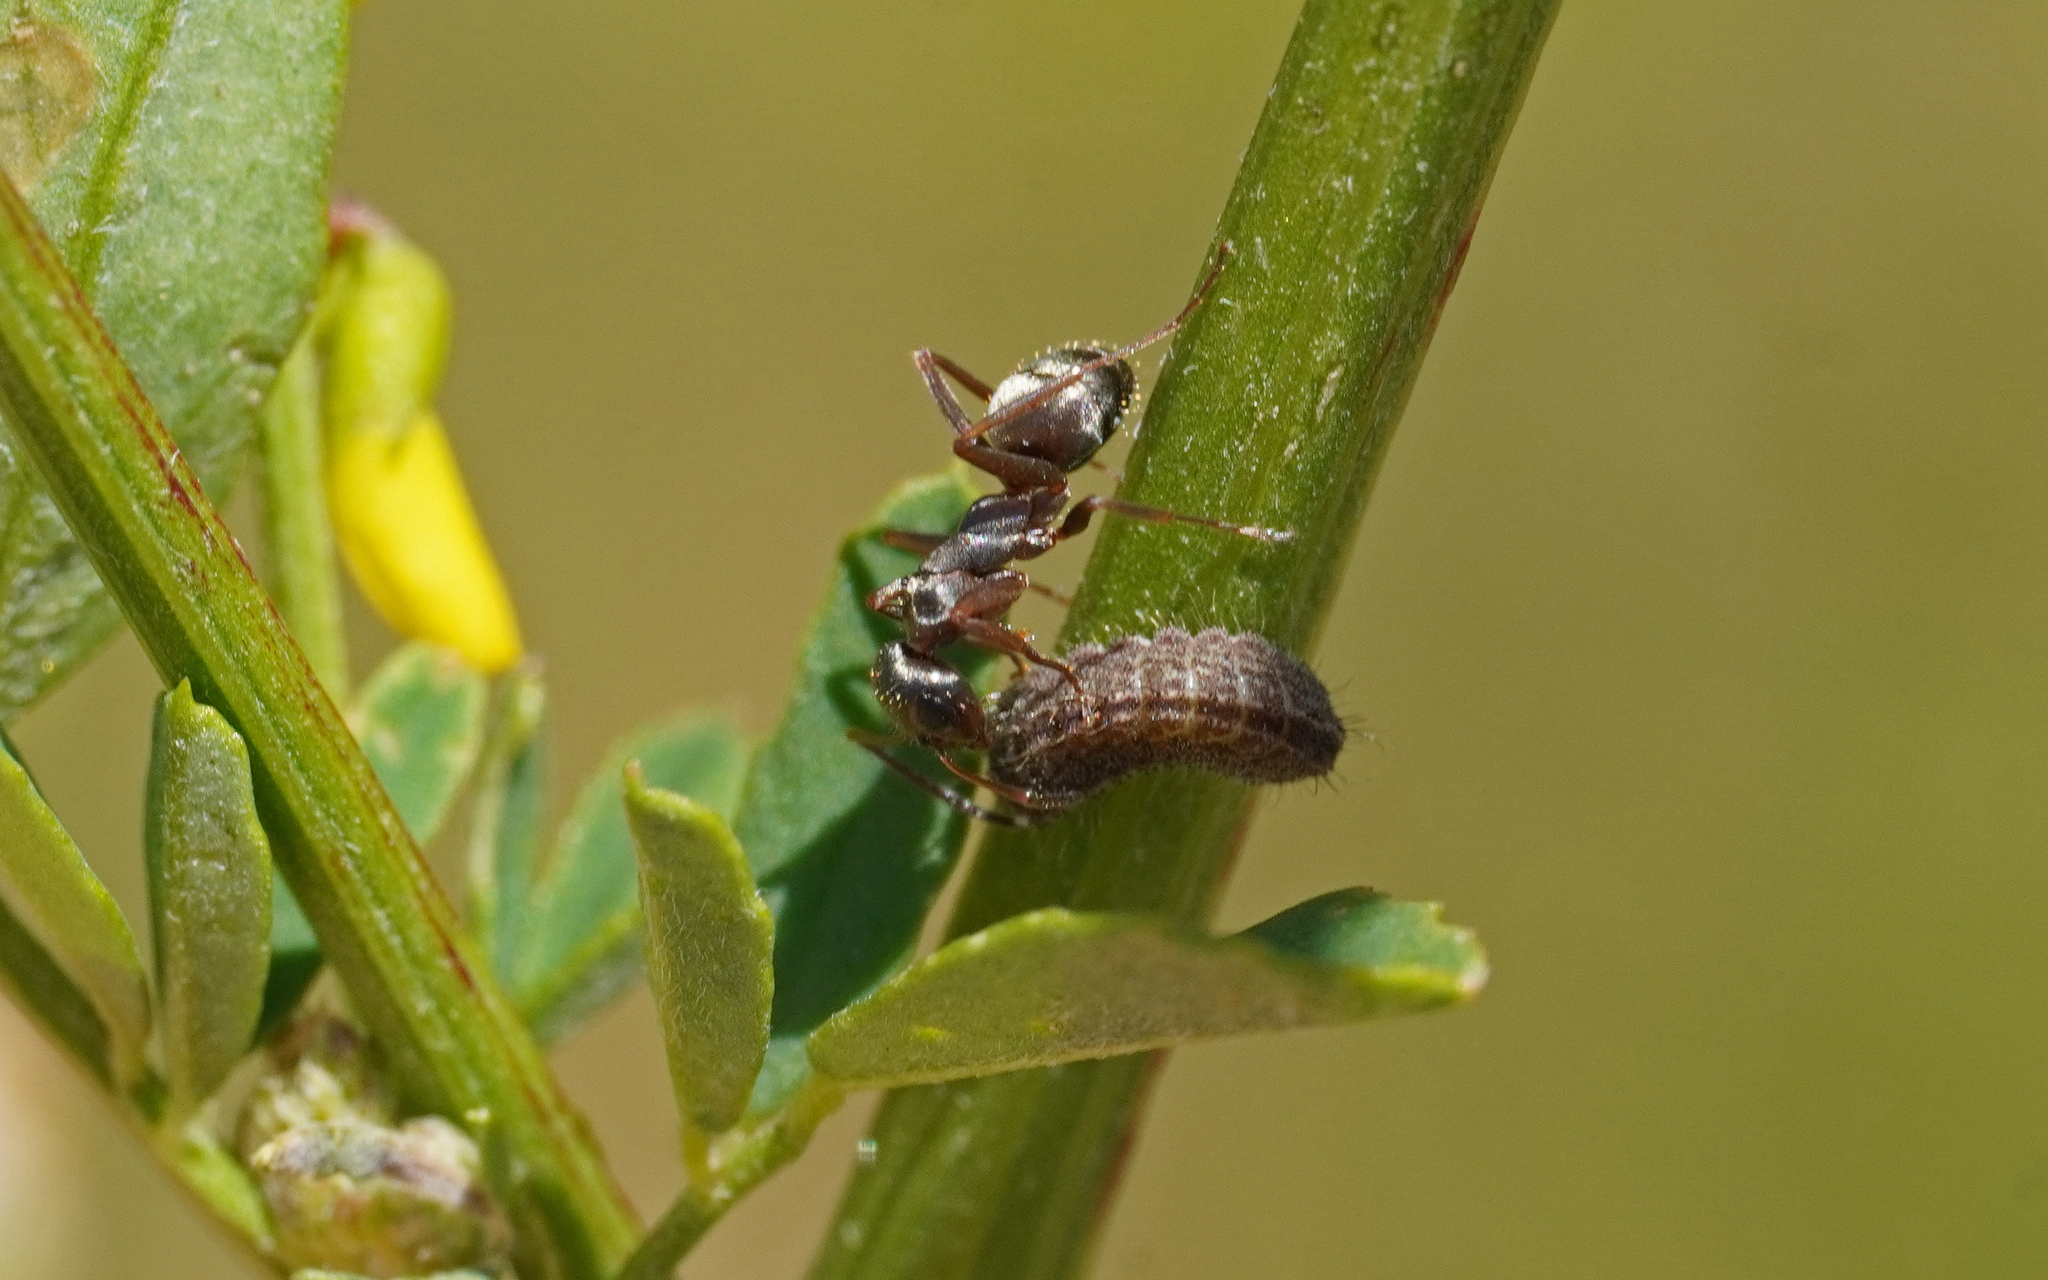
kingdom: Animalia
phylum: Arthropoda
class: Insecta
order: Lepidoptera
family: Lycaenidae
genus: Lycaeides
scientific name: Lycaeides idas
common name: Northern blue
